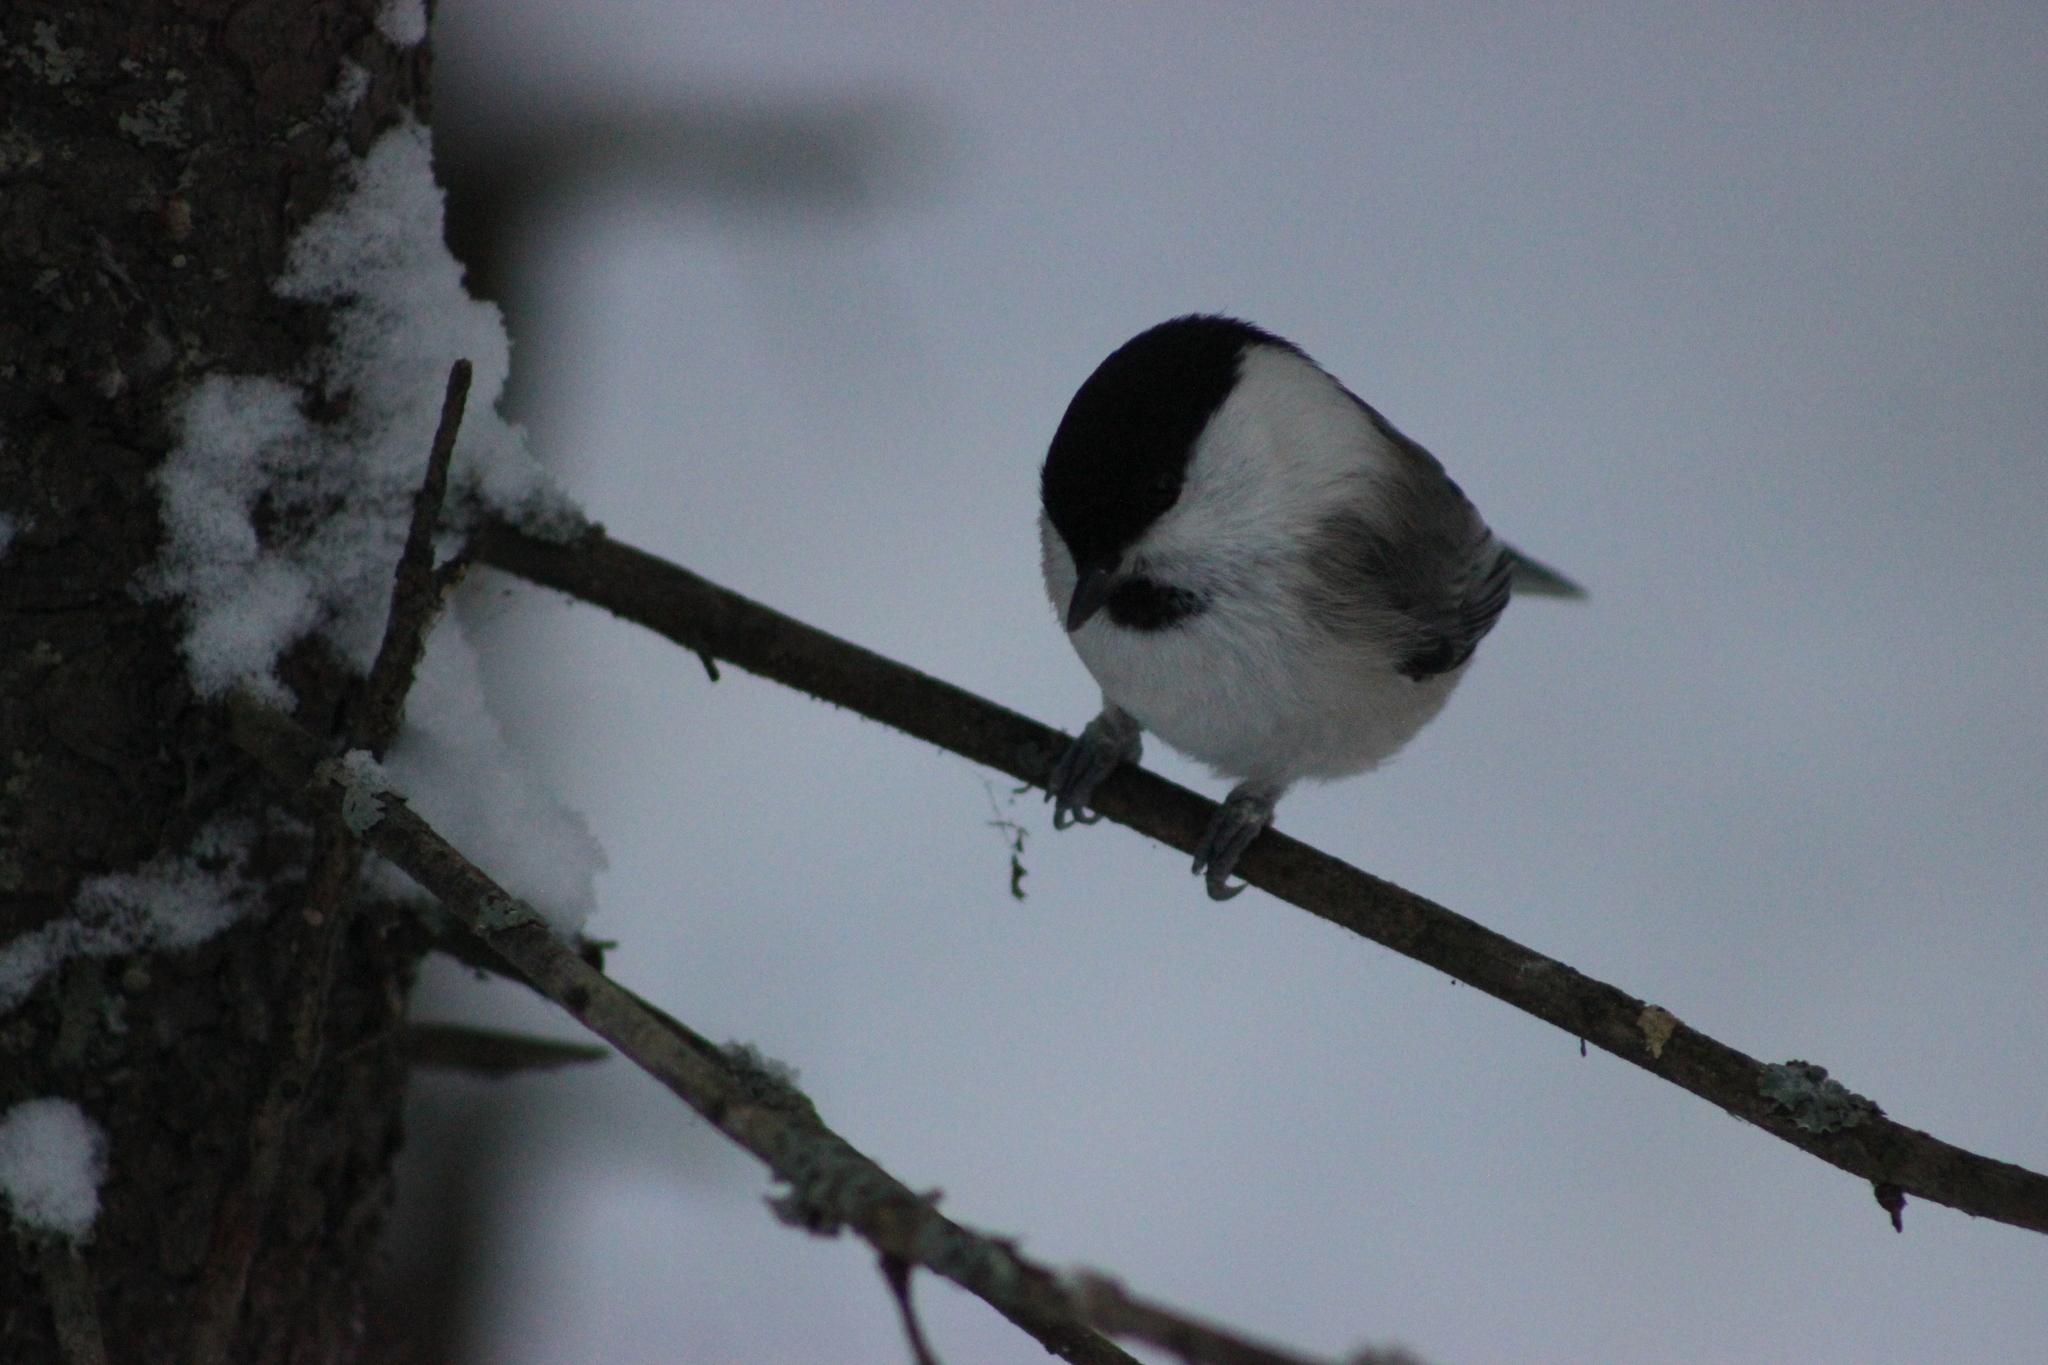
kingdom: Animalia
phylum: Chordata
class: Aves
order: Passeriformes
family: Paridae
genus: Poecile
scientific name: Poecile montanus
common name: Willow tit
